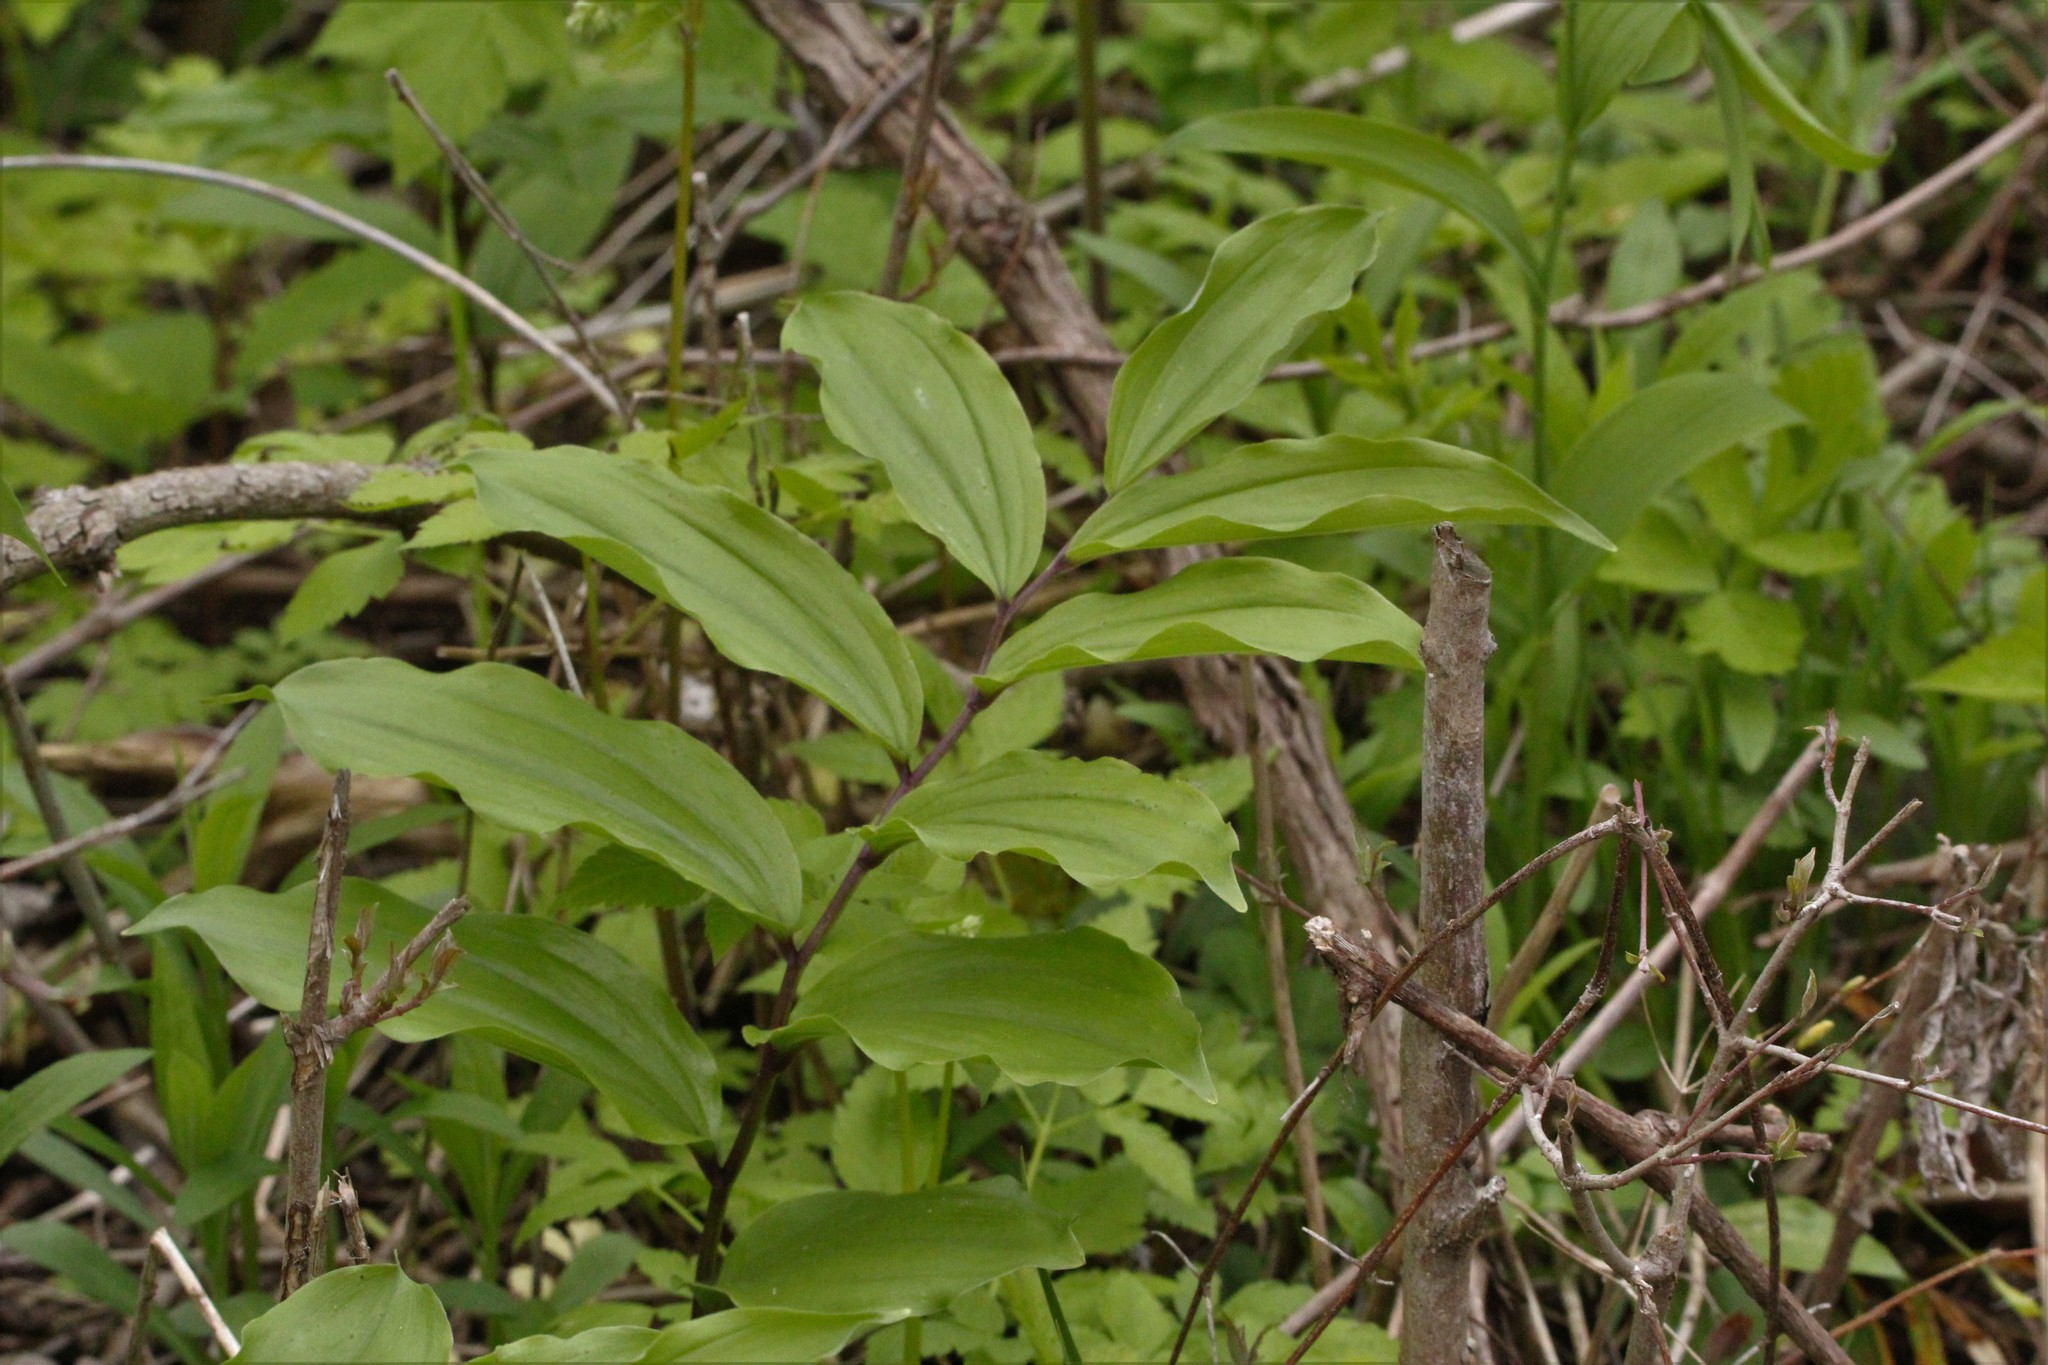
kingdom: Plantae
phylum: Tracheophyta
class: Liliopsida
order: Asparagales
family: Asparagaceae
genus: Maianthemum
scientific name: Maianthemum racemosum
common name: False spikenard
